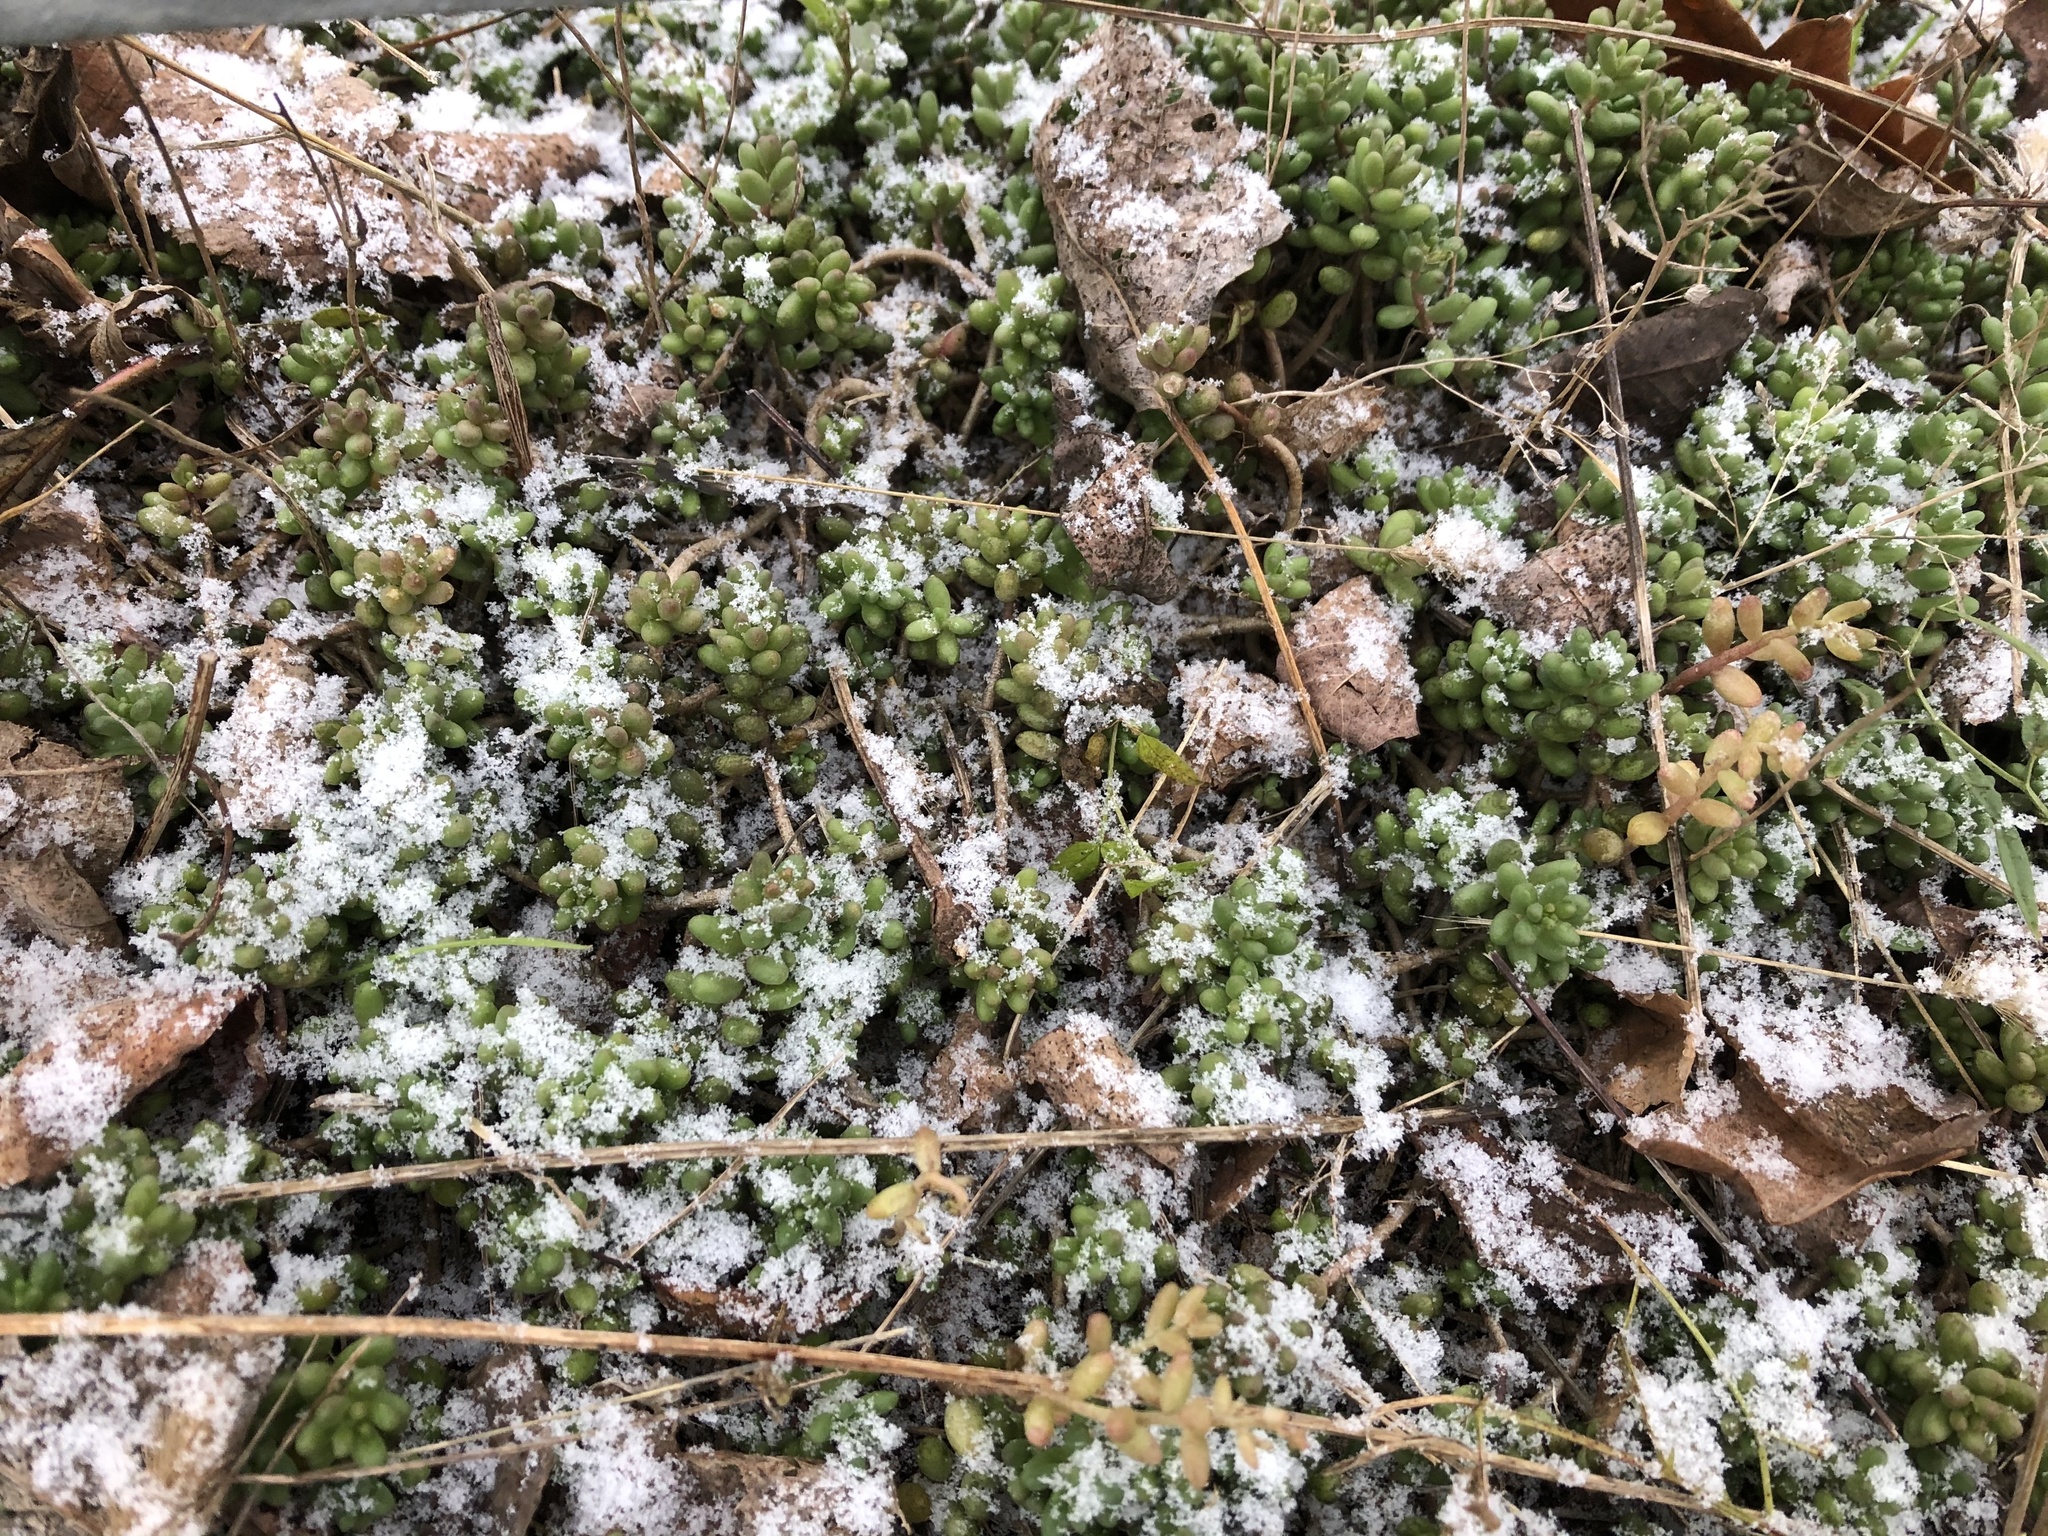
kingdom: Plantae
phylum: Tracheophyta
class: Magnoliopsida
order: Saxifragales
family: Crassulaceae
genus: Sedum
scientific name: Sedum album
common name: White stonecrop
